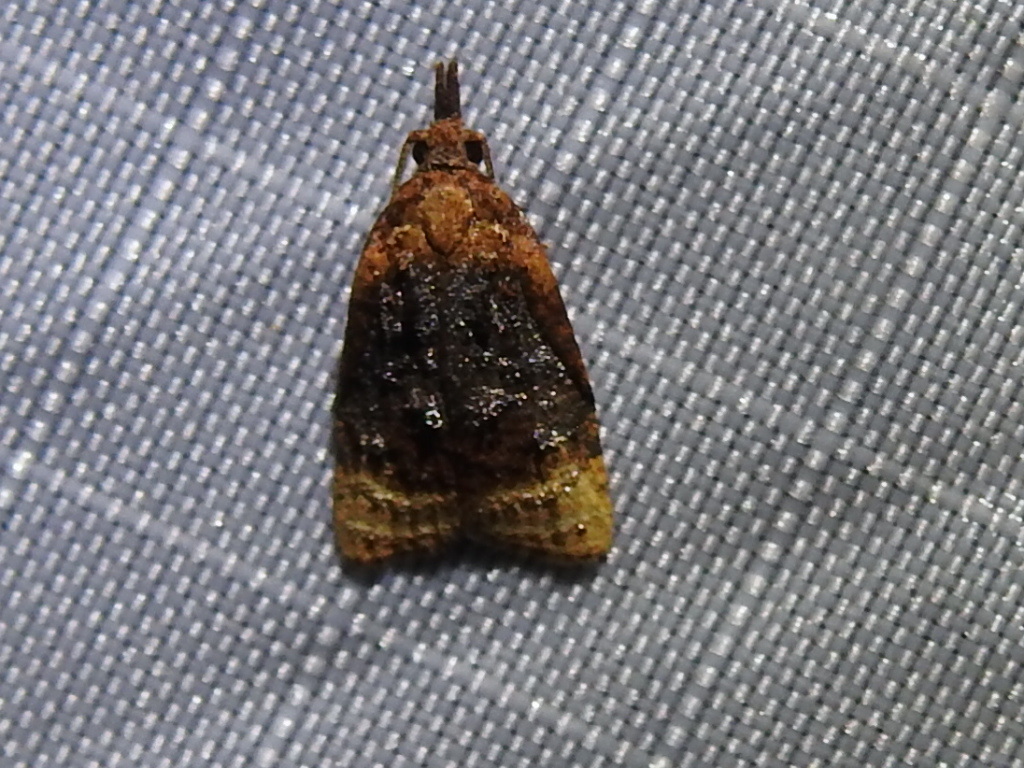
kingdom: Animalia
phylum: Arthropoda
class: Insecta
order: Lepidoptera
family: Tortricidae
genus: Platynota
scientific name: Platynota flavedana
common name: Black-shaded platynota moth
